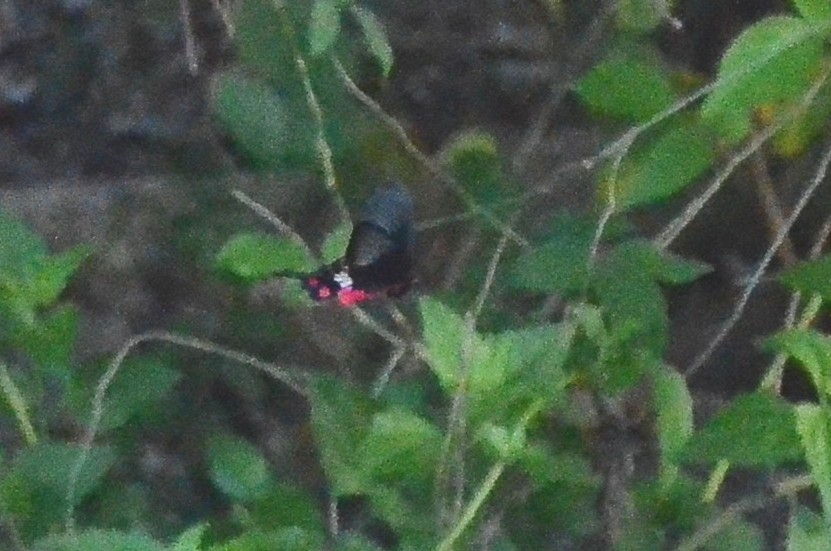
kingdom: Animalia
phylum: Arthropoda
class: Insecta
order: Lepidoptera
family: Papilionidae
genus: Pachliopta
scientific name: Pachliopta aristolochiae
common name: Common rose
